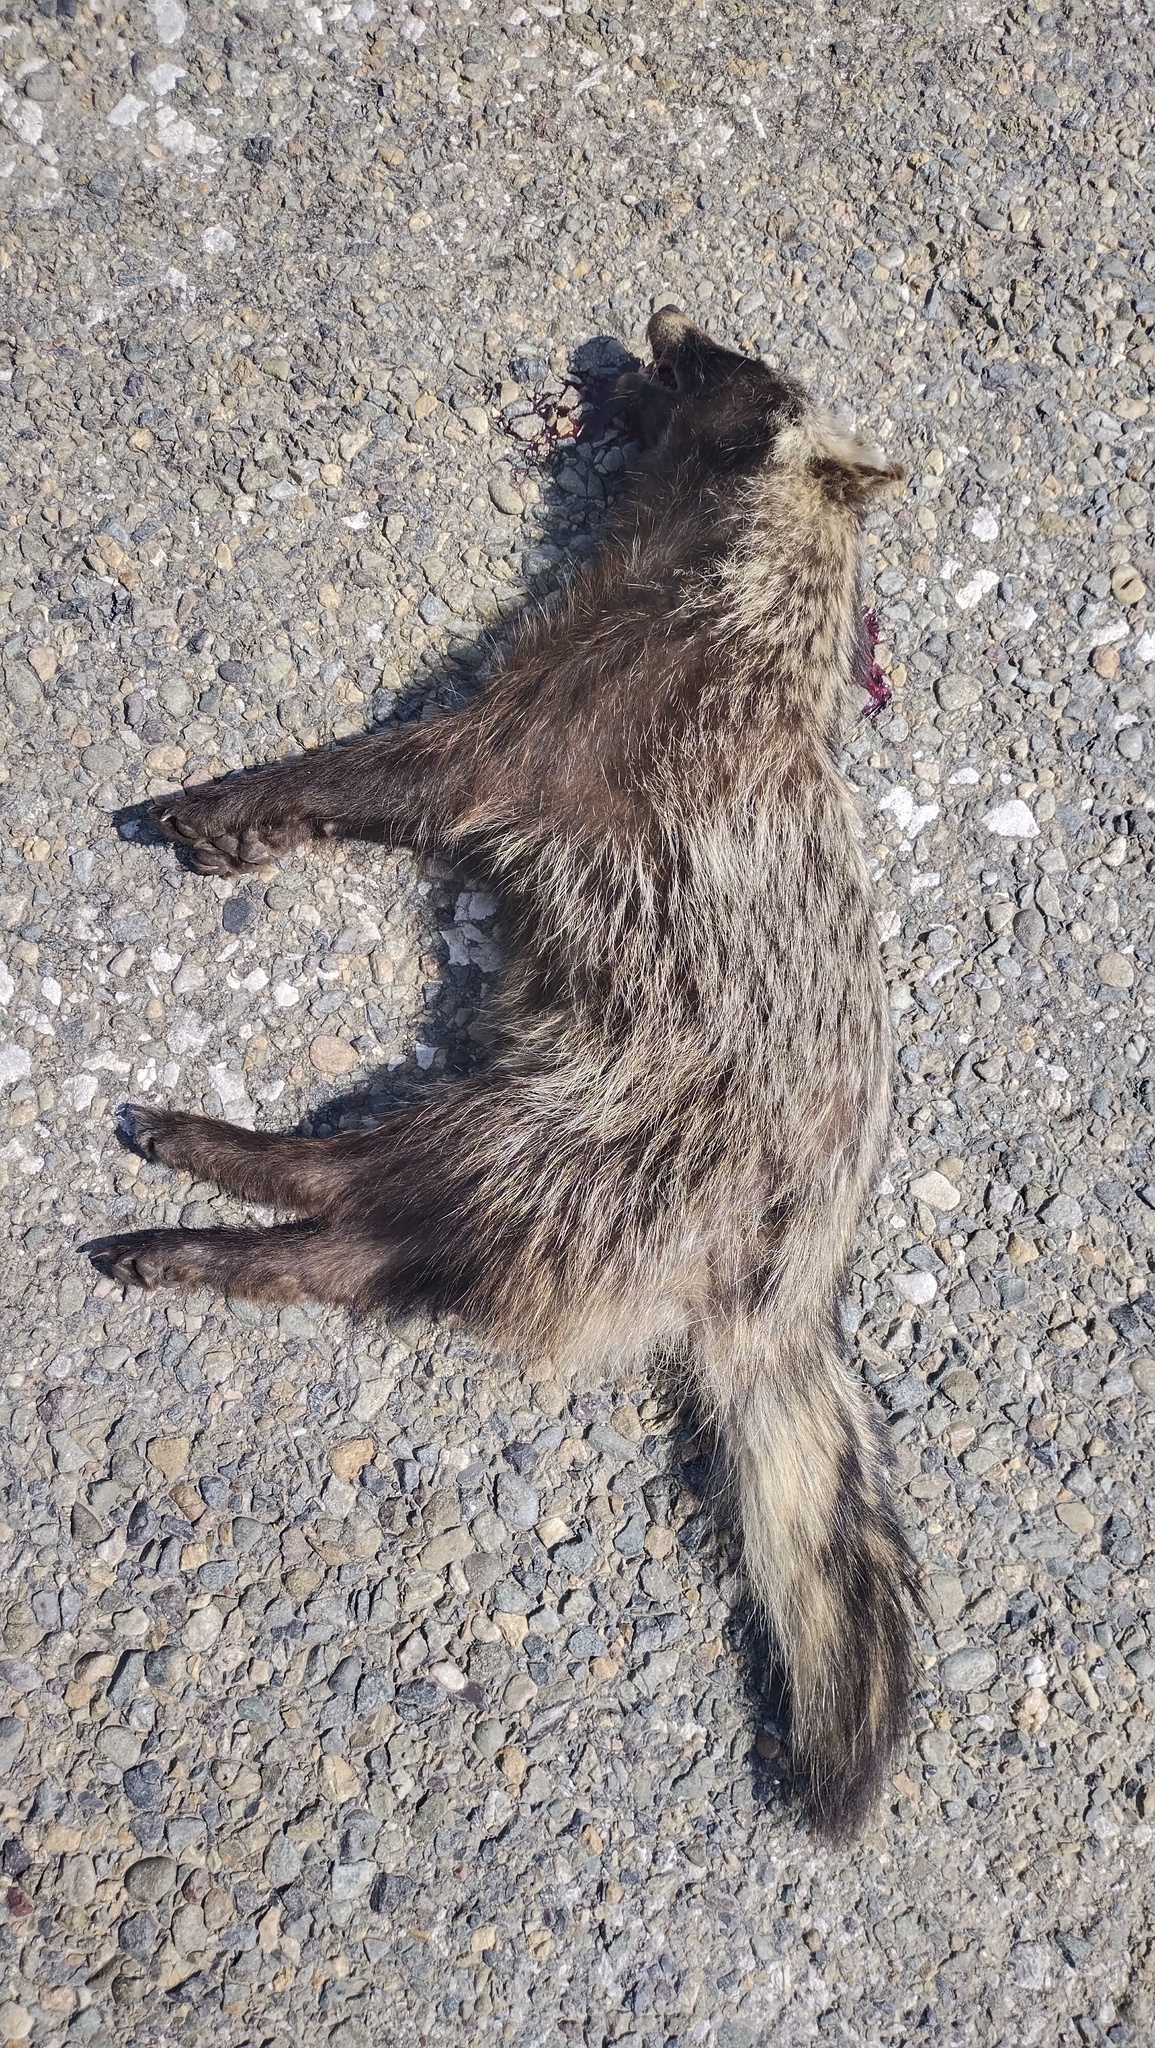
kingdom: Animalia
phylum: Chordata
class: Mammalia
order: Carnivora
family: Canidae
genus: Nyctereutes
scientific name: Nyctereutes procyonoides
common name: Raccoon dog
